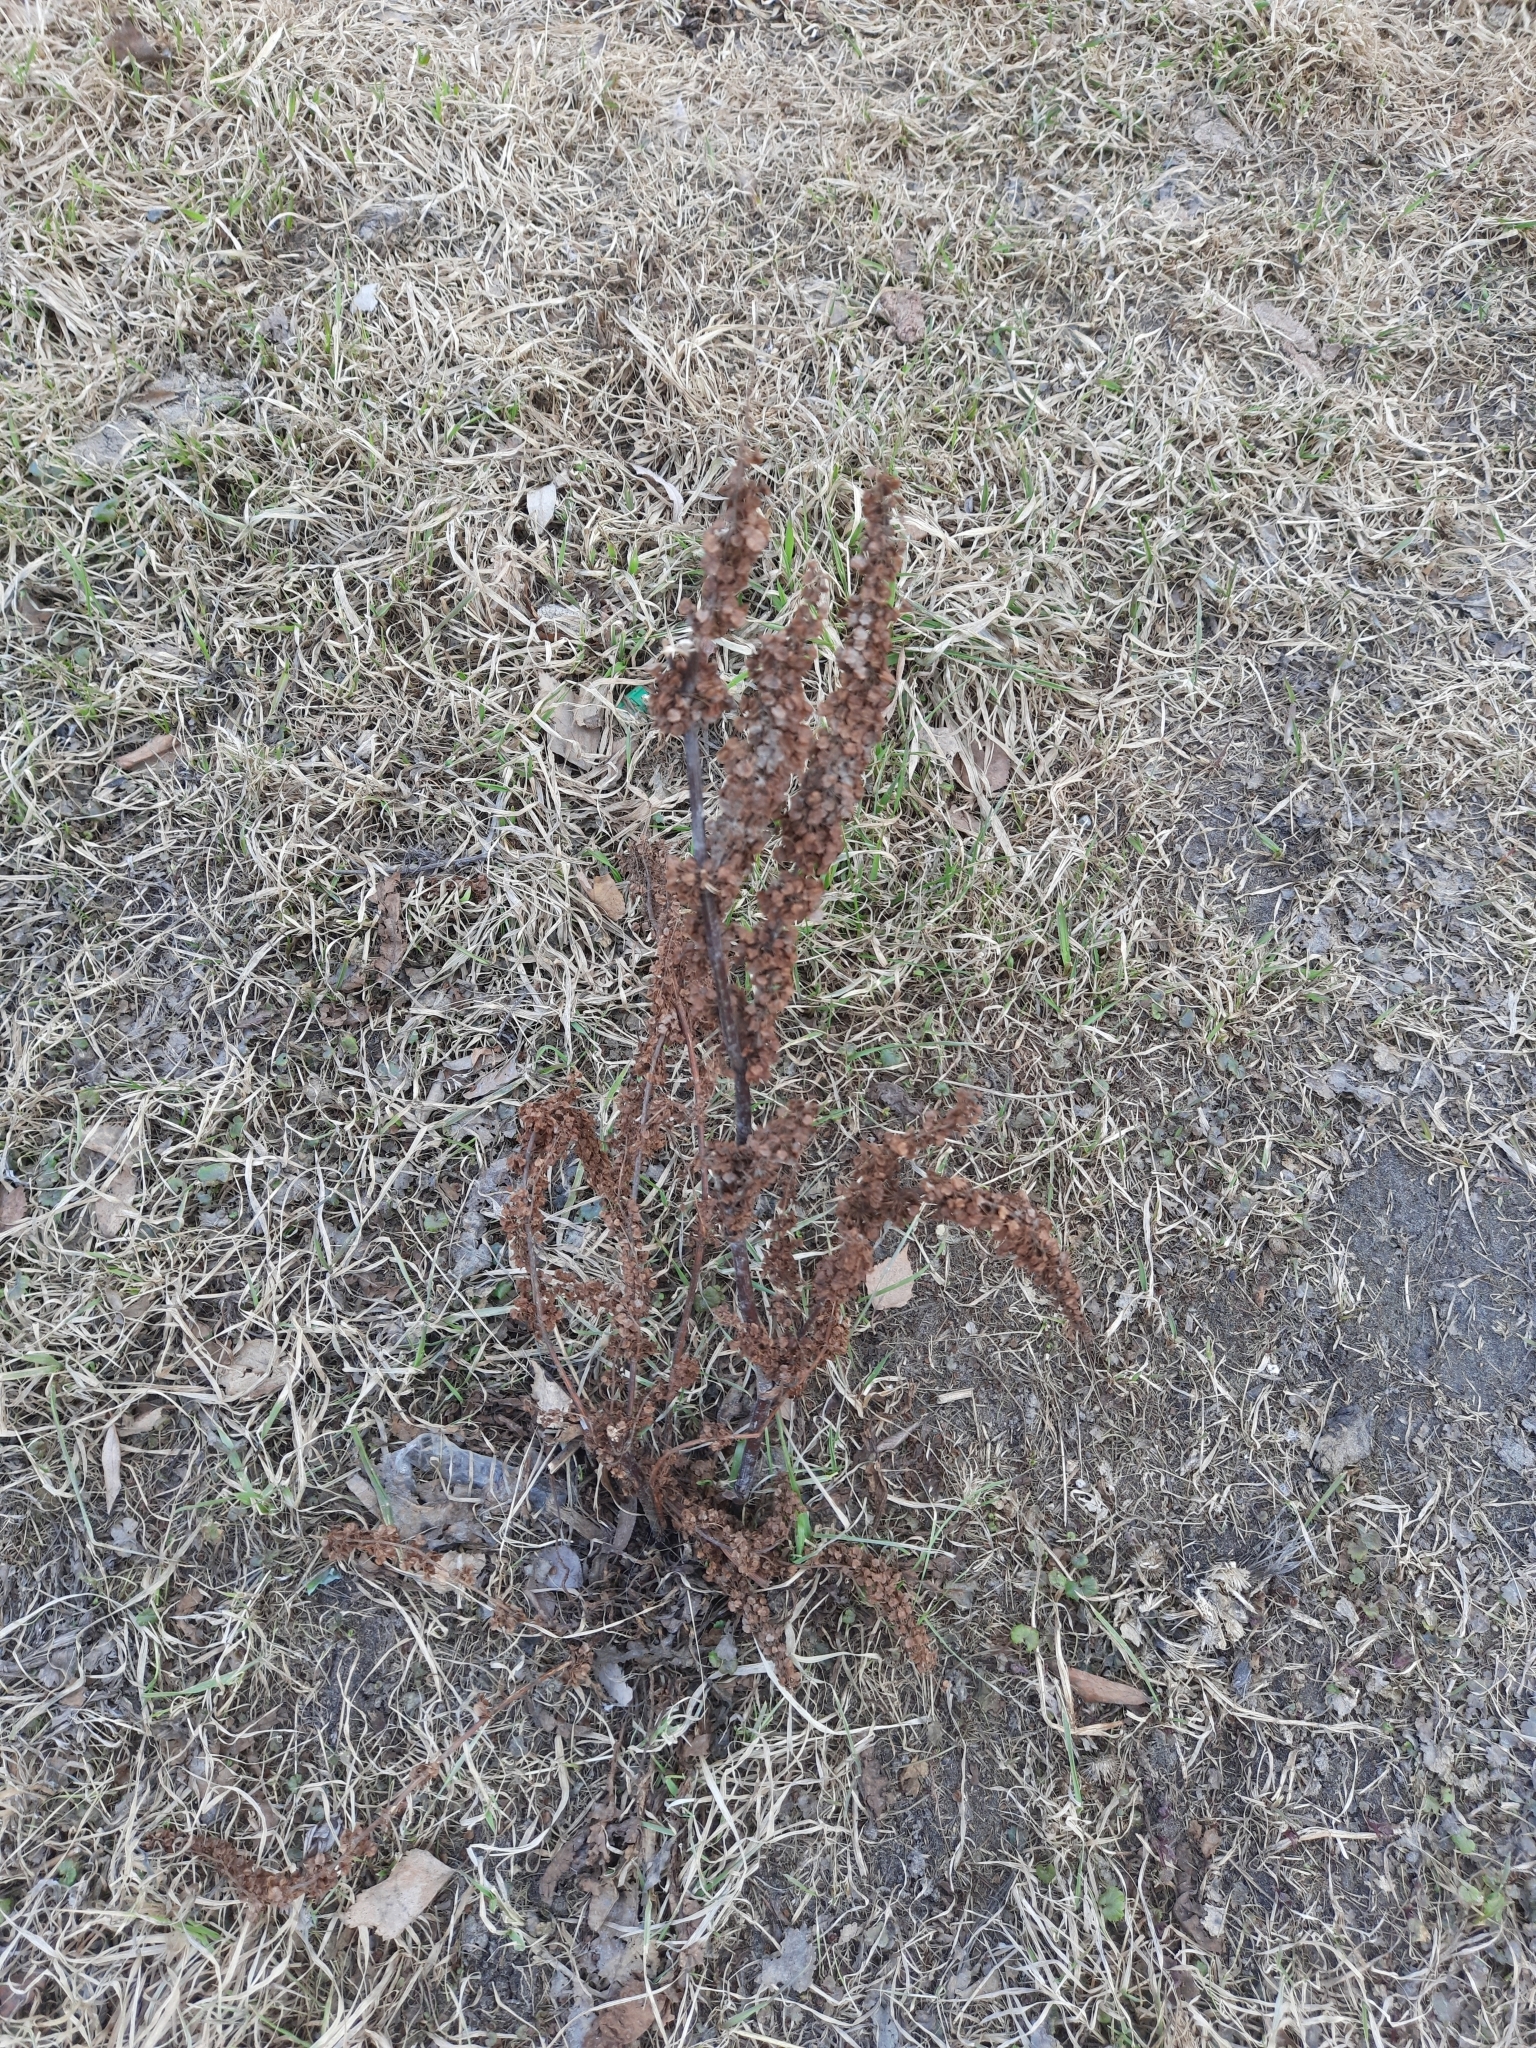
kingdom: Plantae
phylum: Tracheophyta
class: Magnoliopsida
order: Caryophyllales
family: Polygonaceae
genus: Rumex
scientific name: Rumex pseudonatronatus
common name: Field dock
